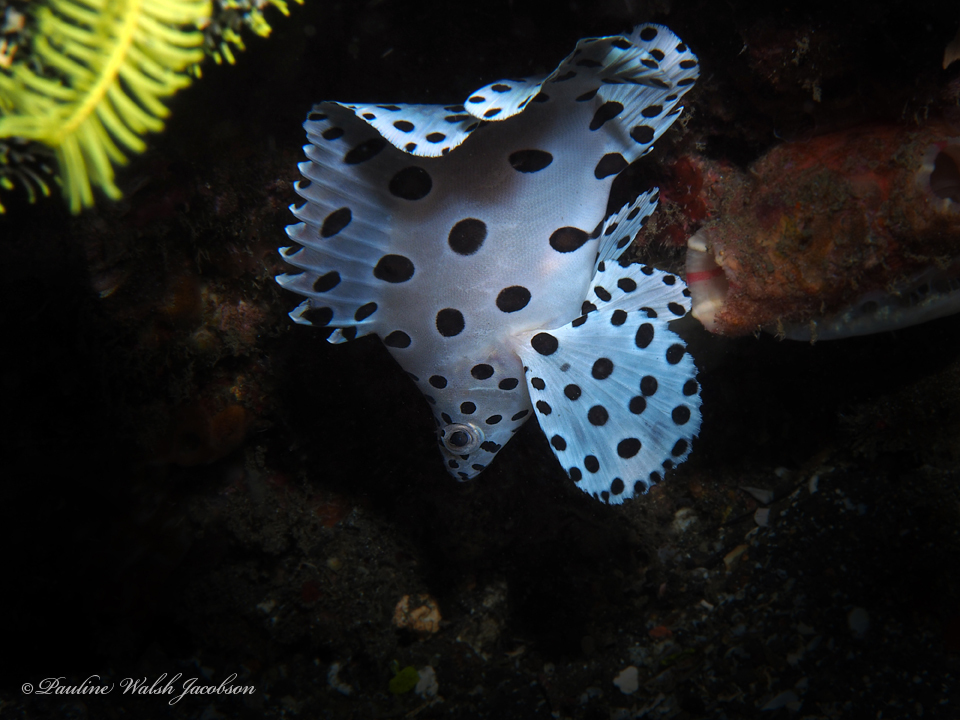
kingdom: Animalia
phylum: Chordata
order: Perciformes
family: Serranidae
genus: Cromileptes
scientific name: Cromileptes altivelis
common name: Humpback grouper
